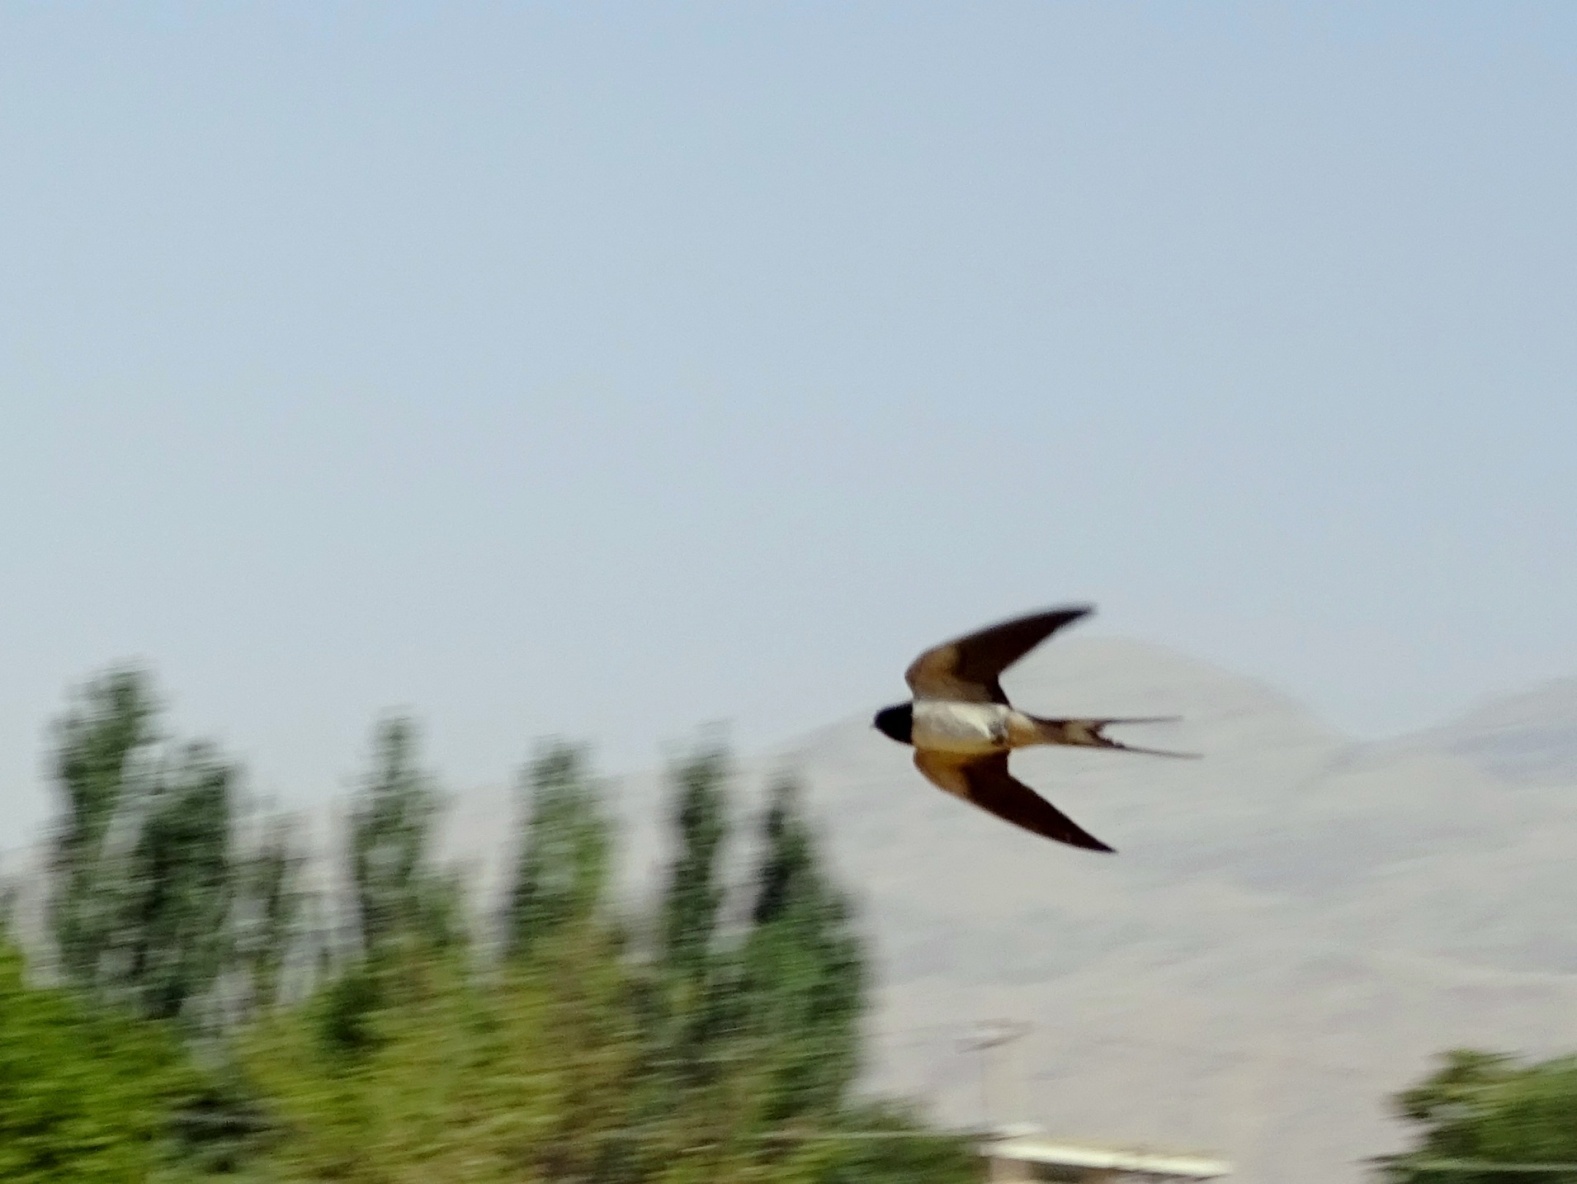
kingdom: Animalia
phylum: Chordata
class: Aves
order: Passeriformes
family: Hirundinidae
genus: Hirundo
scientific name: Hirundo rustica
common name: Barn swallow
